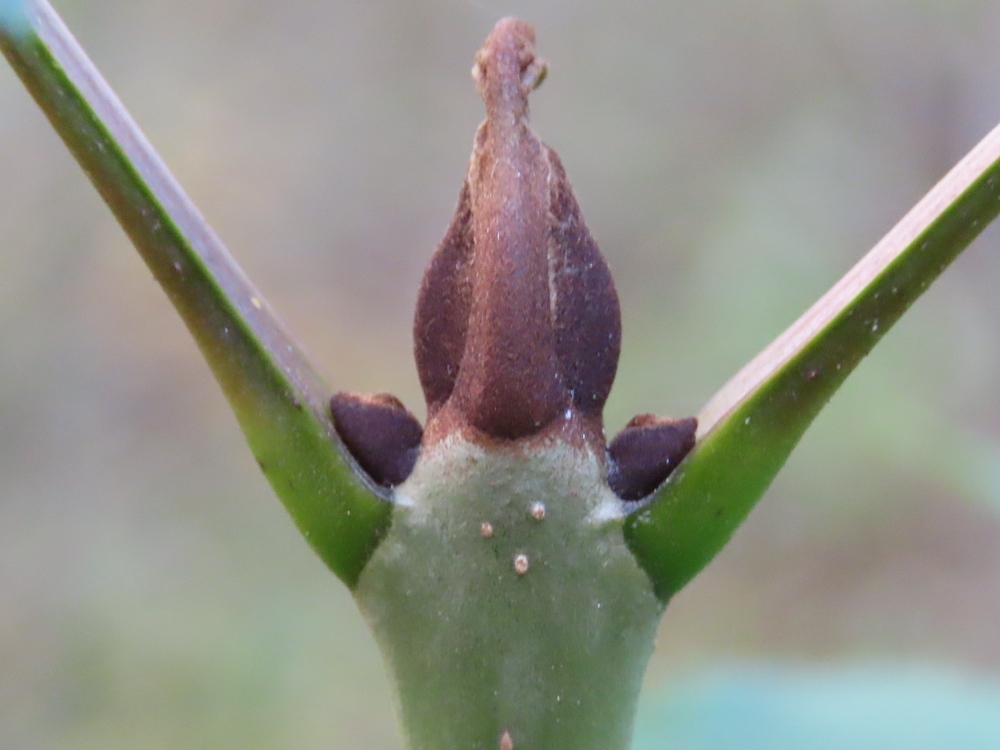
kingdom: Plantae
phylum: Tracheophyta
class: Magnoliopsida
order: Lamiales
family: Oleaceae
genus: Fraxinus
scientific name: Fraxinus excelsior
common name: European ash
